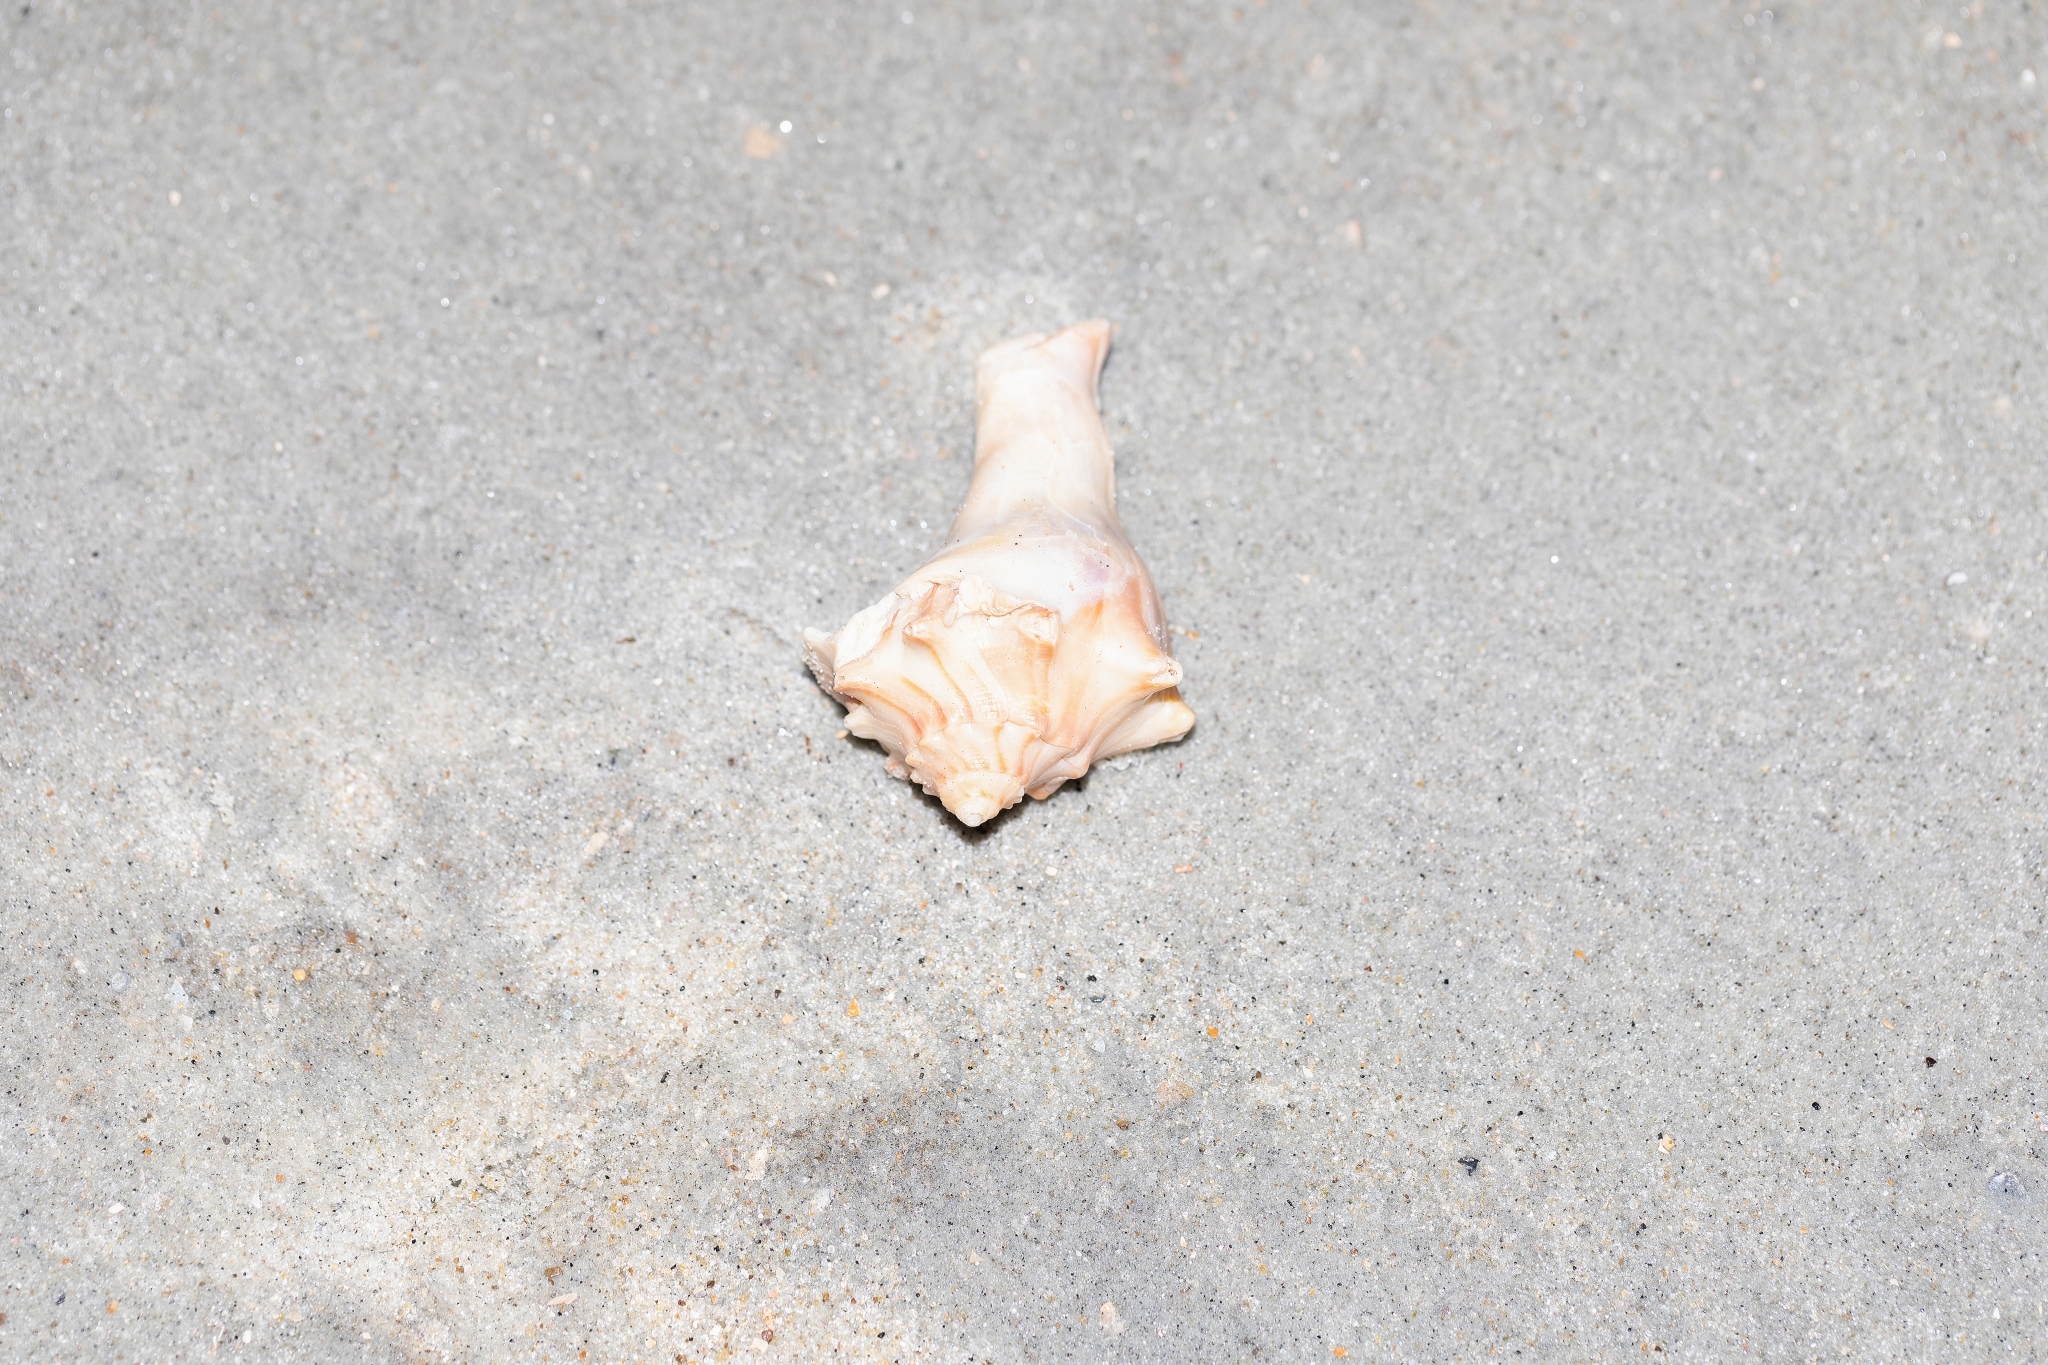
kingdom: Animalia
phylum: Mollusca
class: Gastropoda
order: Neogastropoda
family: Busyconidae
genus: Busycon
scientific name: Busycon carica
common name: Knobbed whelk
